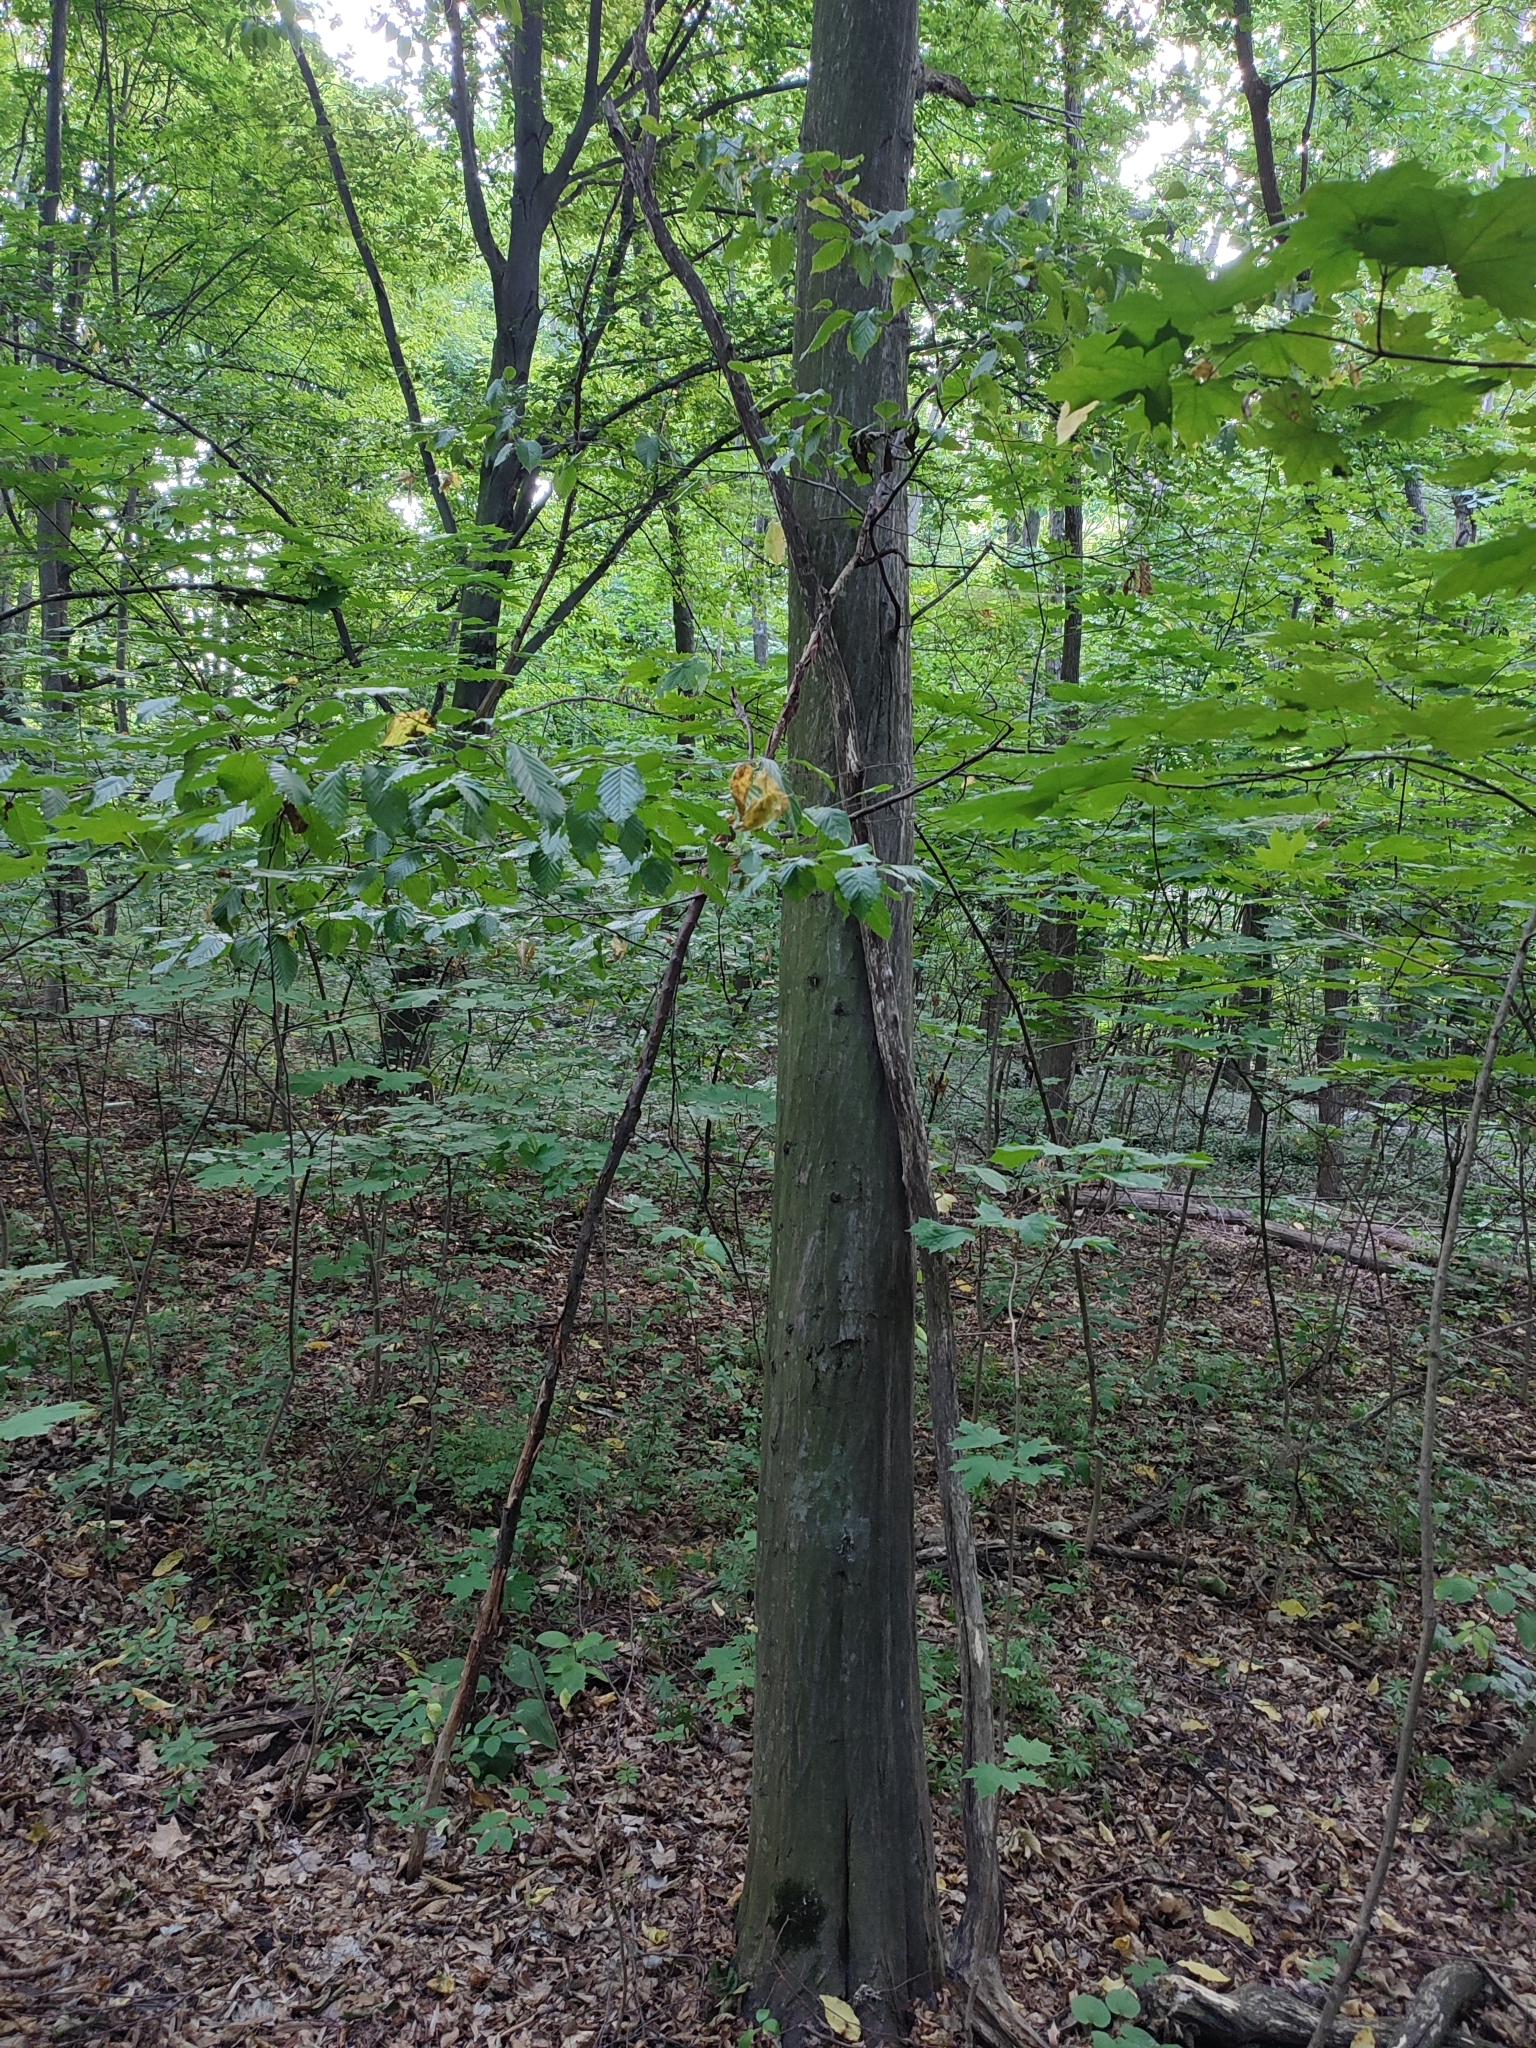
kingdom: Plantae
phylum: Tracheophyta
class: Magnoliopsida
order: Fagales
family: Betulaceae
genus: Carpinus
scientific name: Carpinus betulus
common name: Hornbeam
